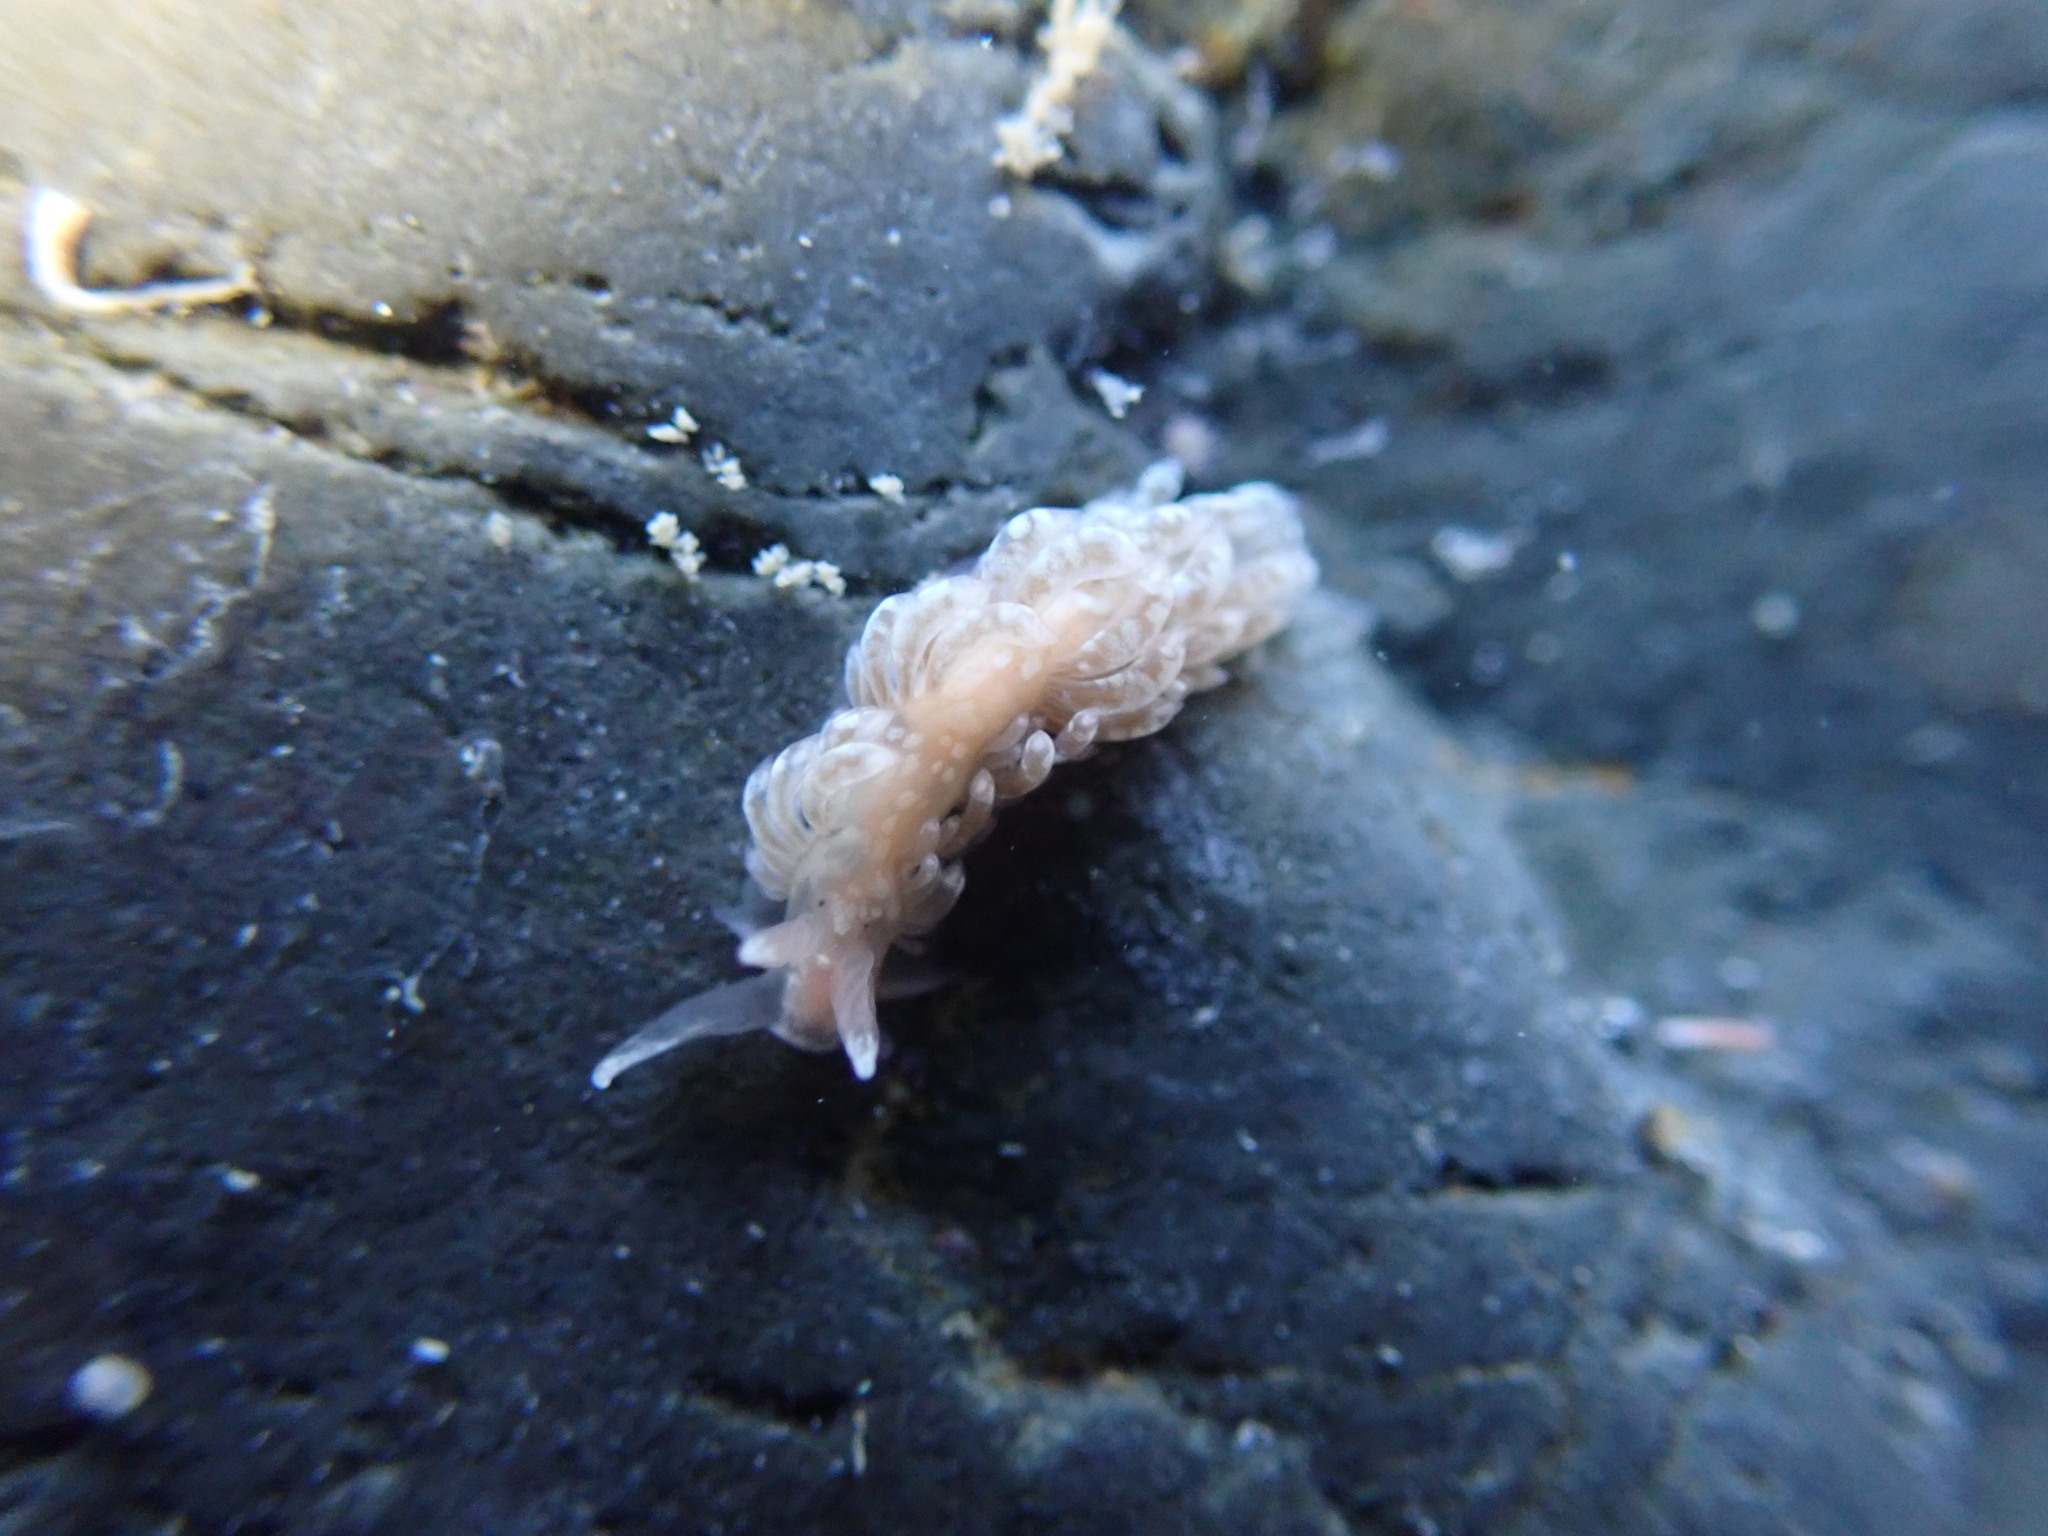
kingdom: Animalia
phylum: Mollusca
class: Gastropoda
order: Nudibranchia
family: Aeolidiidae
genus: Anteaeolidiella
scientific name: Anteaeolidiella chromosoma
